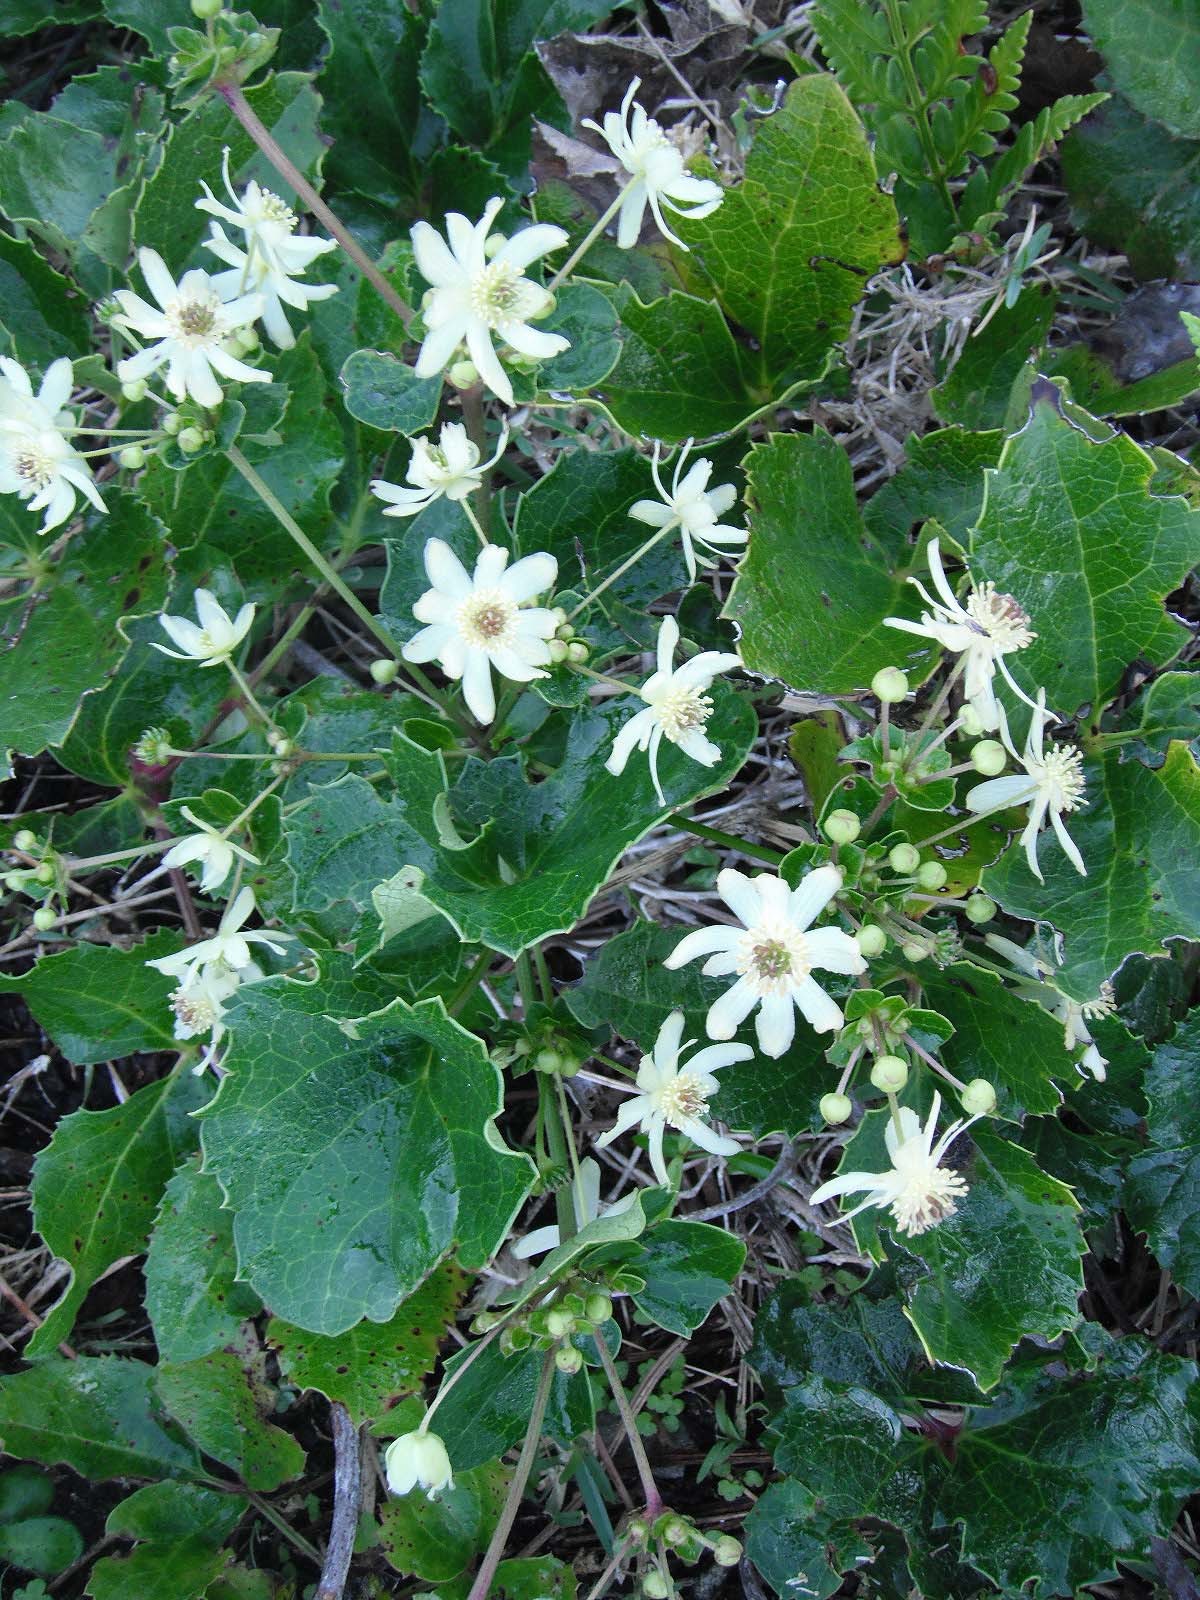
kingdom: Plantae
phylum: Tracheophyta
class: Magnoliopsida
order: Ranunculales
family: Ranunculaceae
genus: Knowltonia
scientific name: Knowltonia vesicatoria
